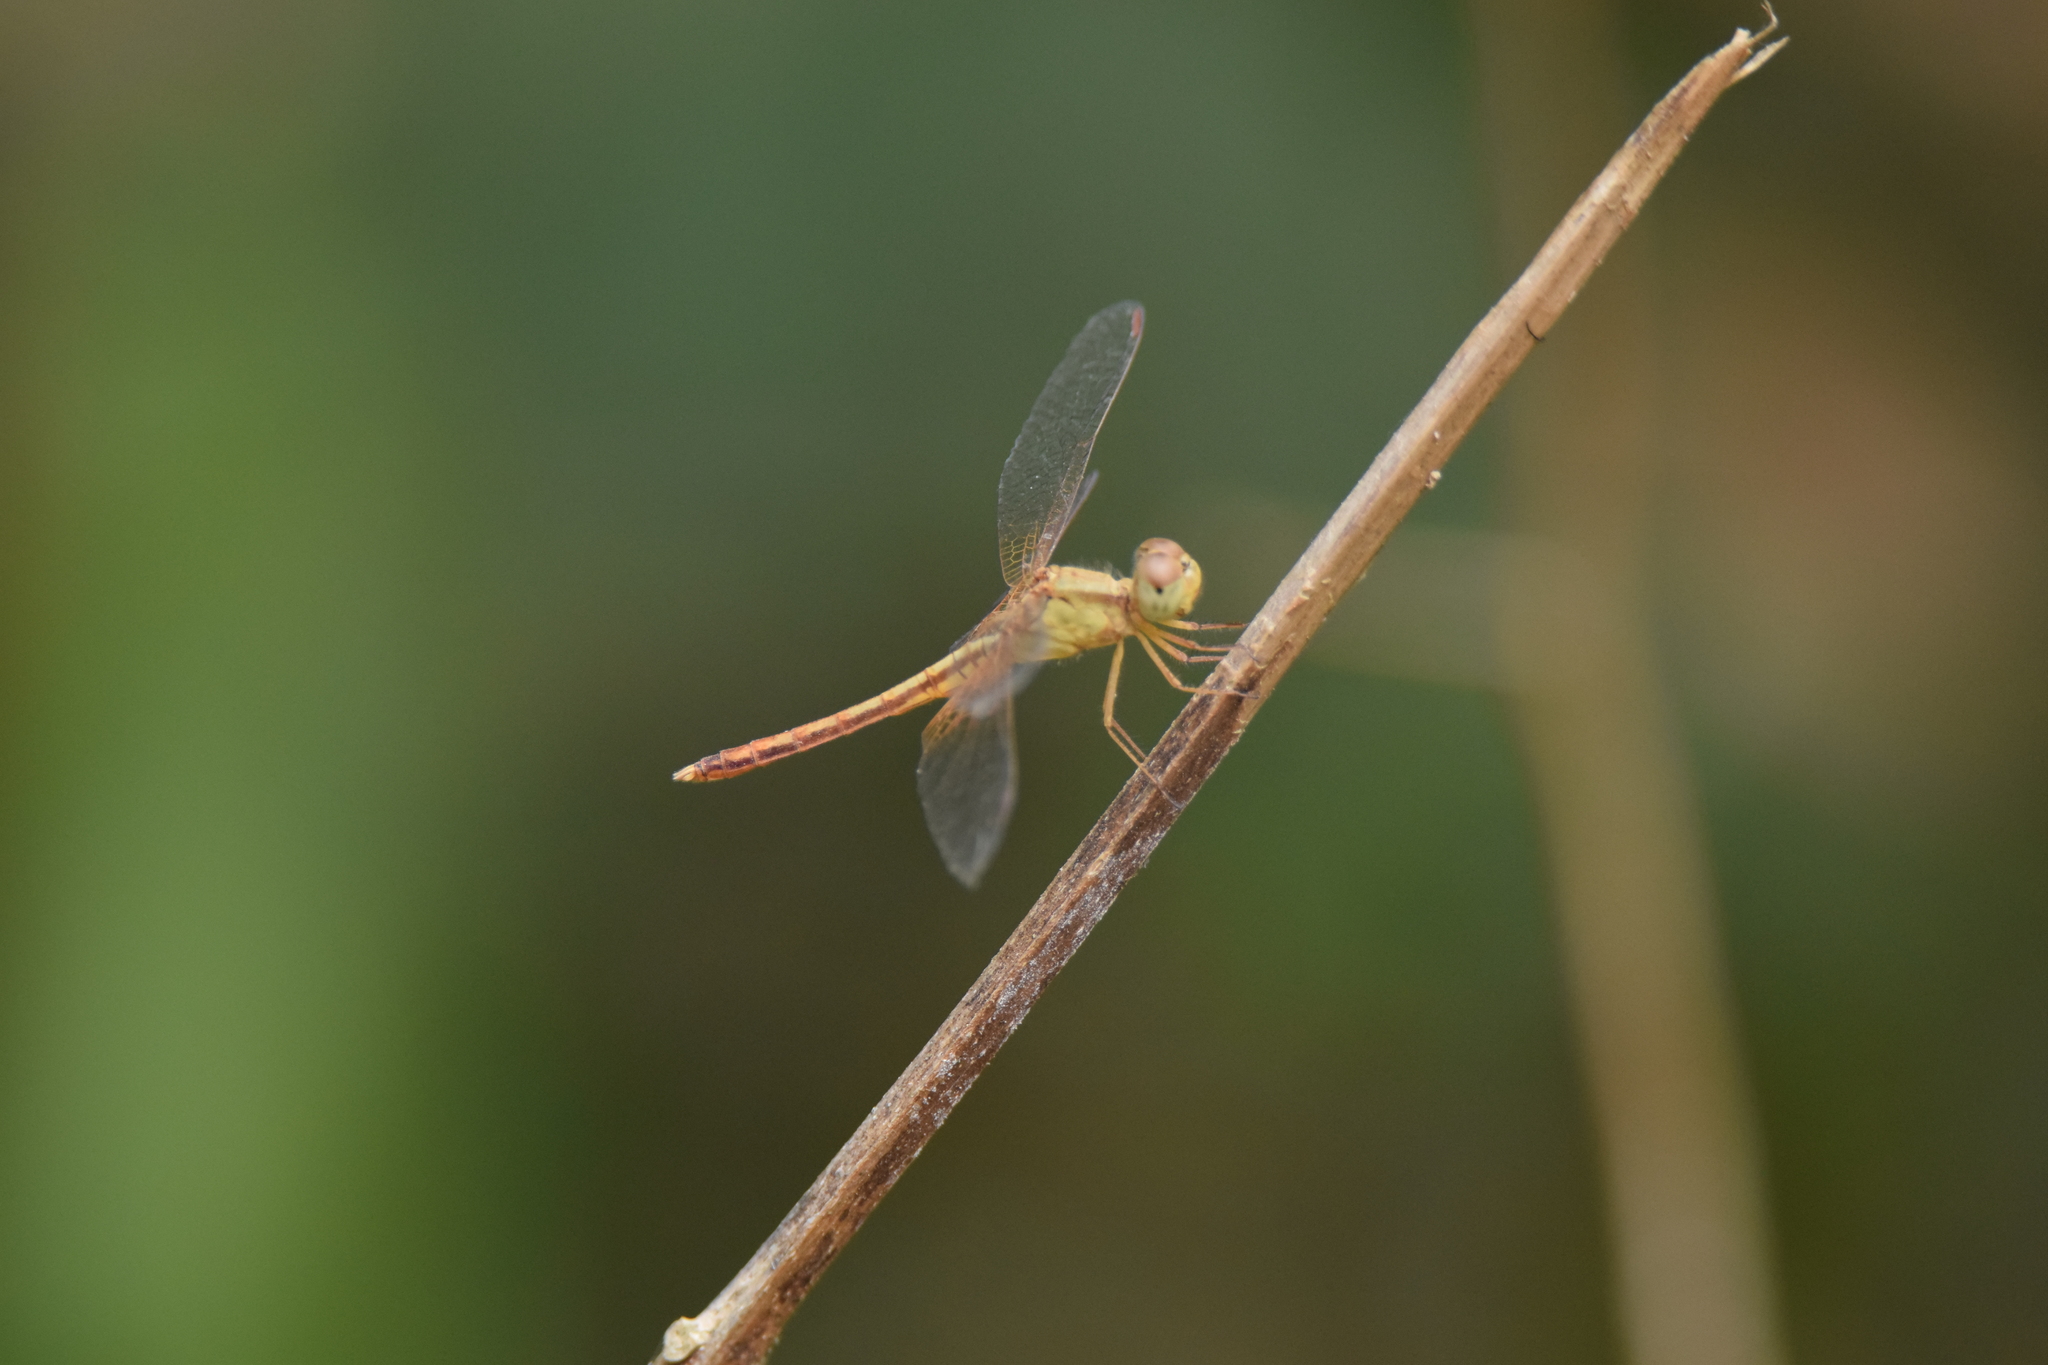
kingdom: Animalia
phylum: Arthropoda
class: Insecta
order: Odonata
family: Libellulidae
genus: Neurothemis
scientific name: Neurothemis intermedia
